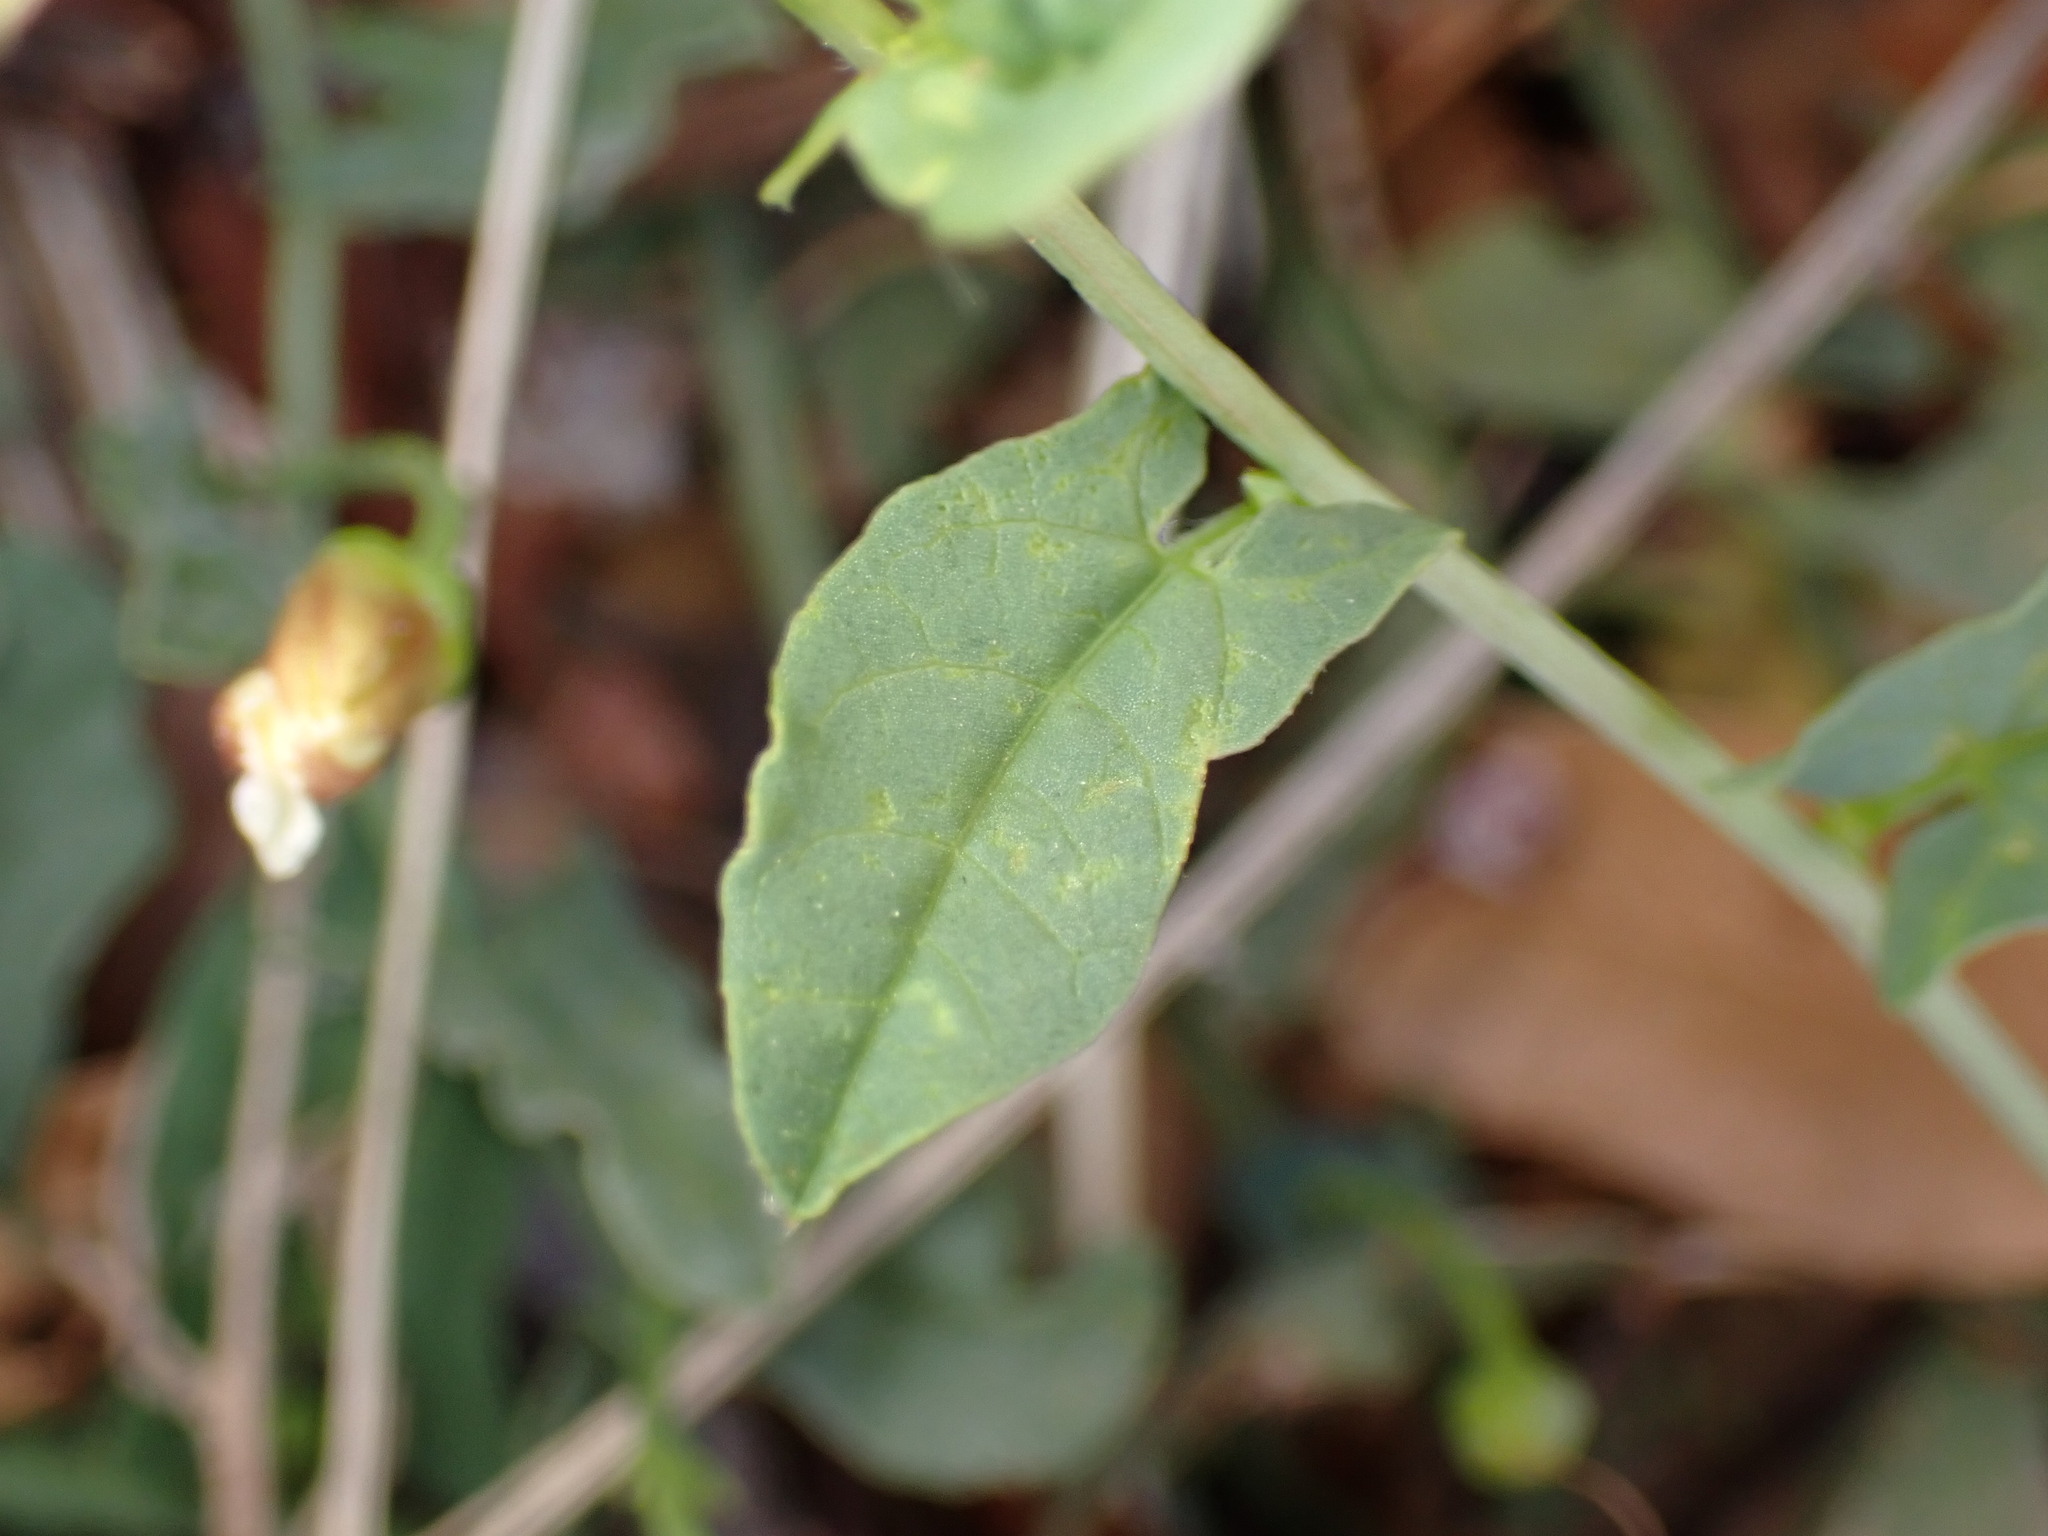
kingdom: Plantae
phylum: Tracheophyta
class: Magnoliopsida
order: Solanales
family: Convolvulaceae
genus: Convolvulus
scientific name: Convolvulus arvensis
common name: Field bindweed
